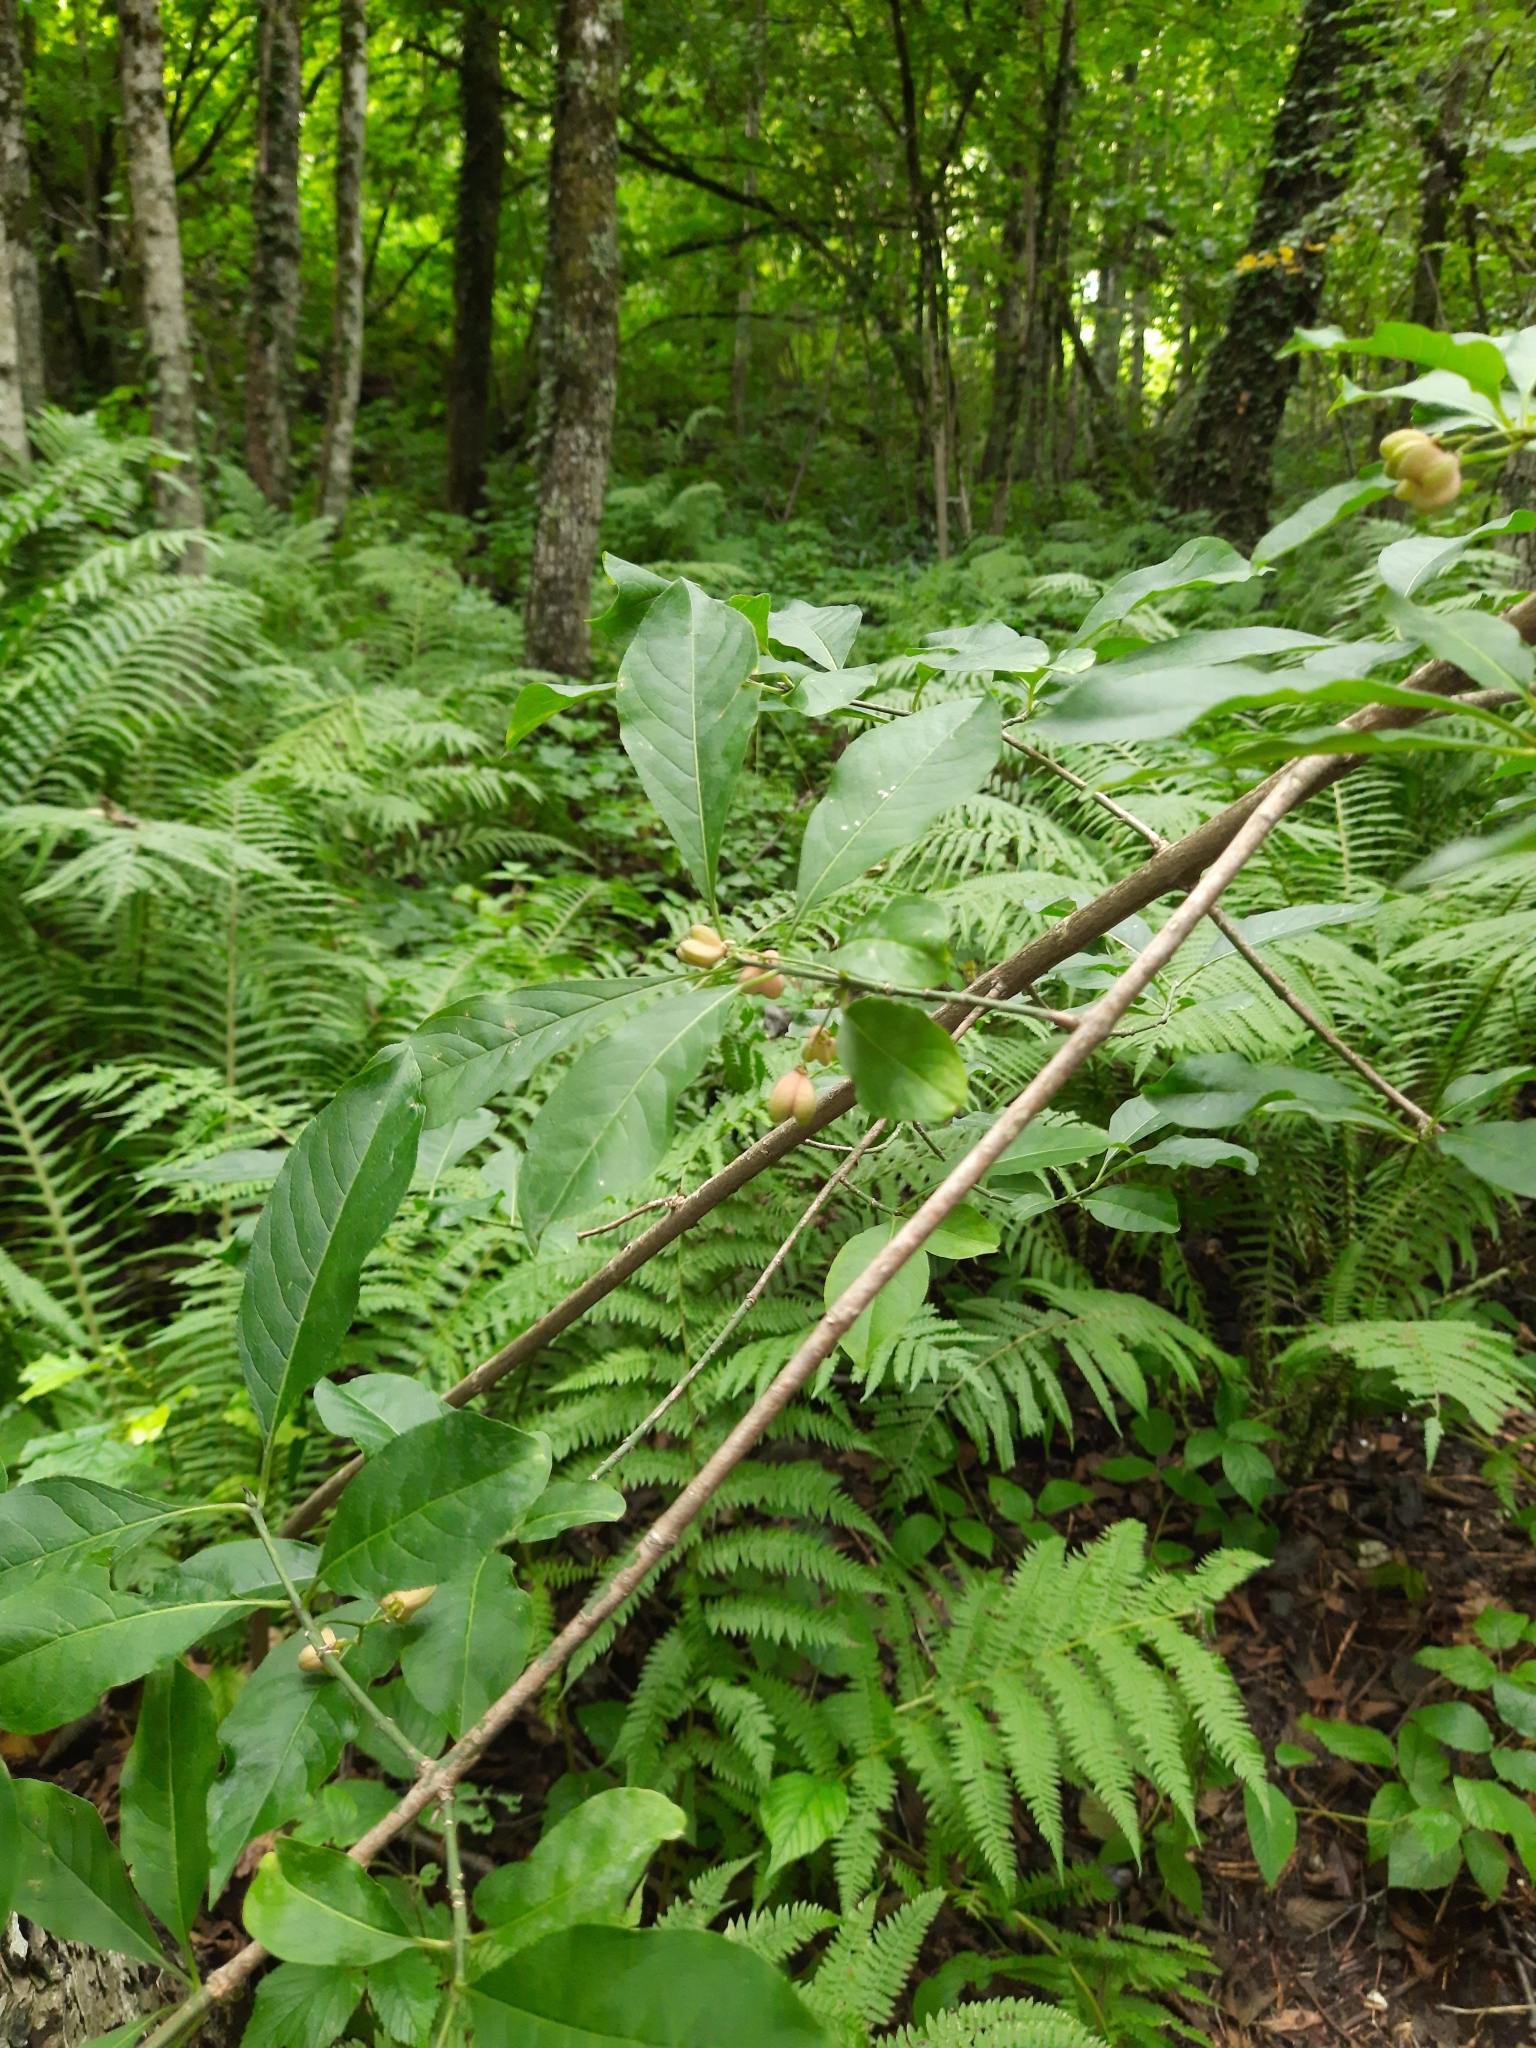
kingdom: Plantae
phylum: Tracheophyta
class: Magnoliopsida
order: Celastrales
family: Celastraceae
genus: Euonymus
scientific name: Euonymus europaeus
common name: Spindle
